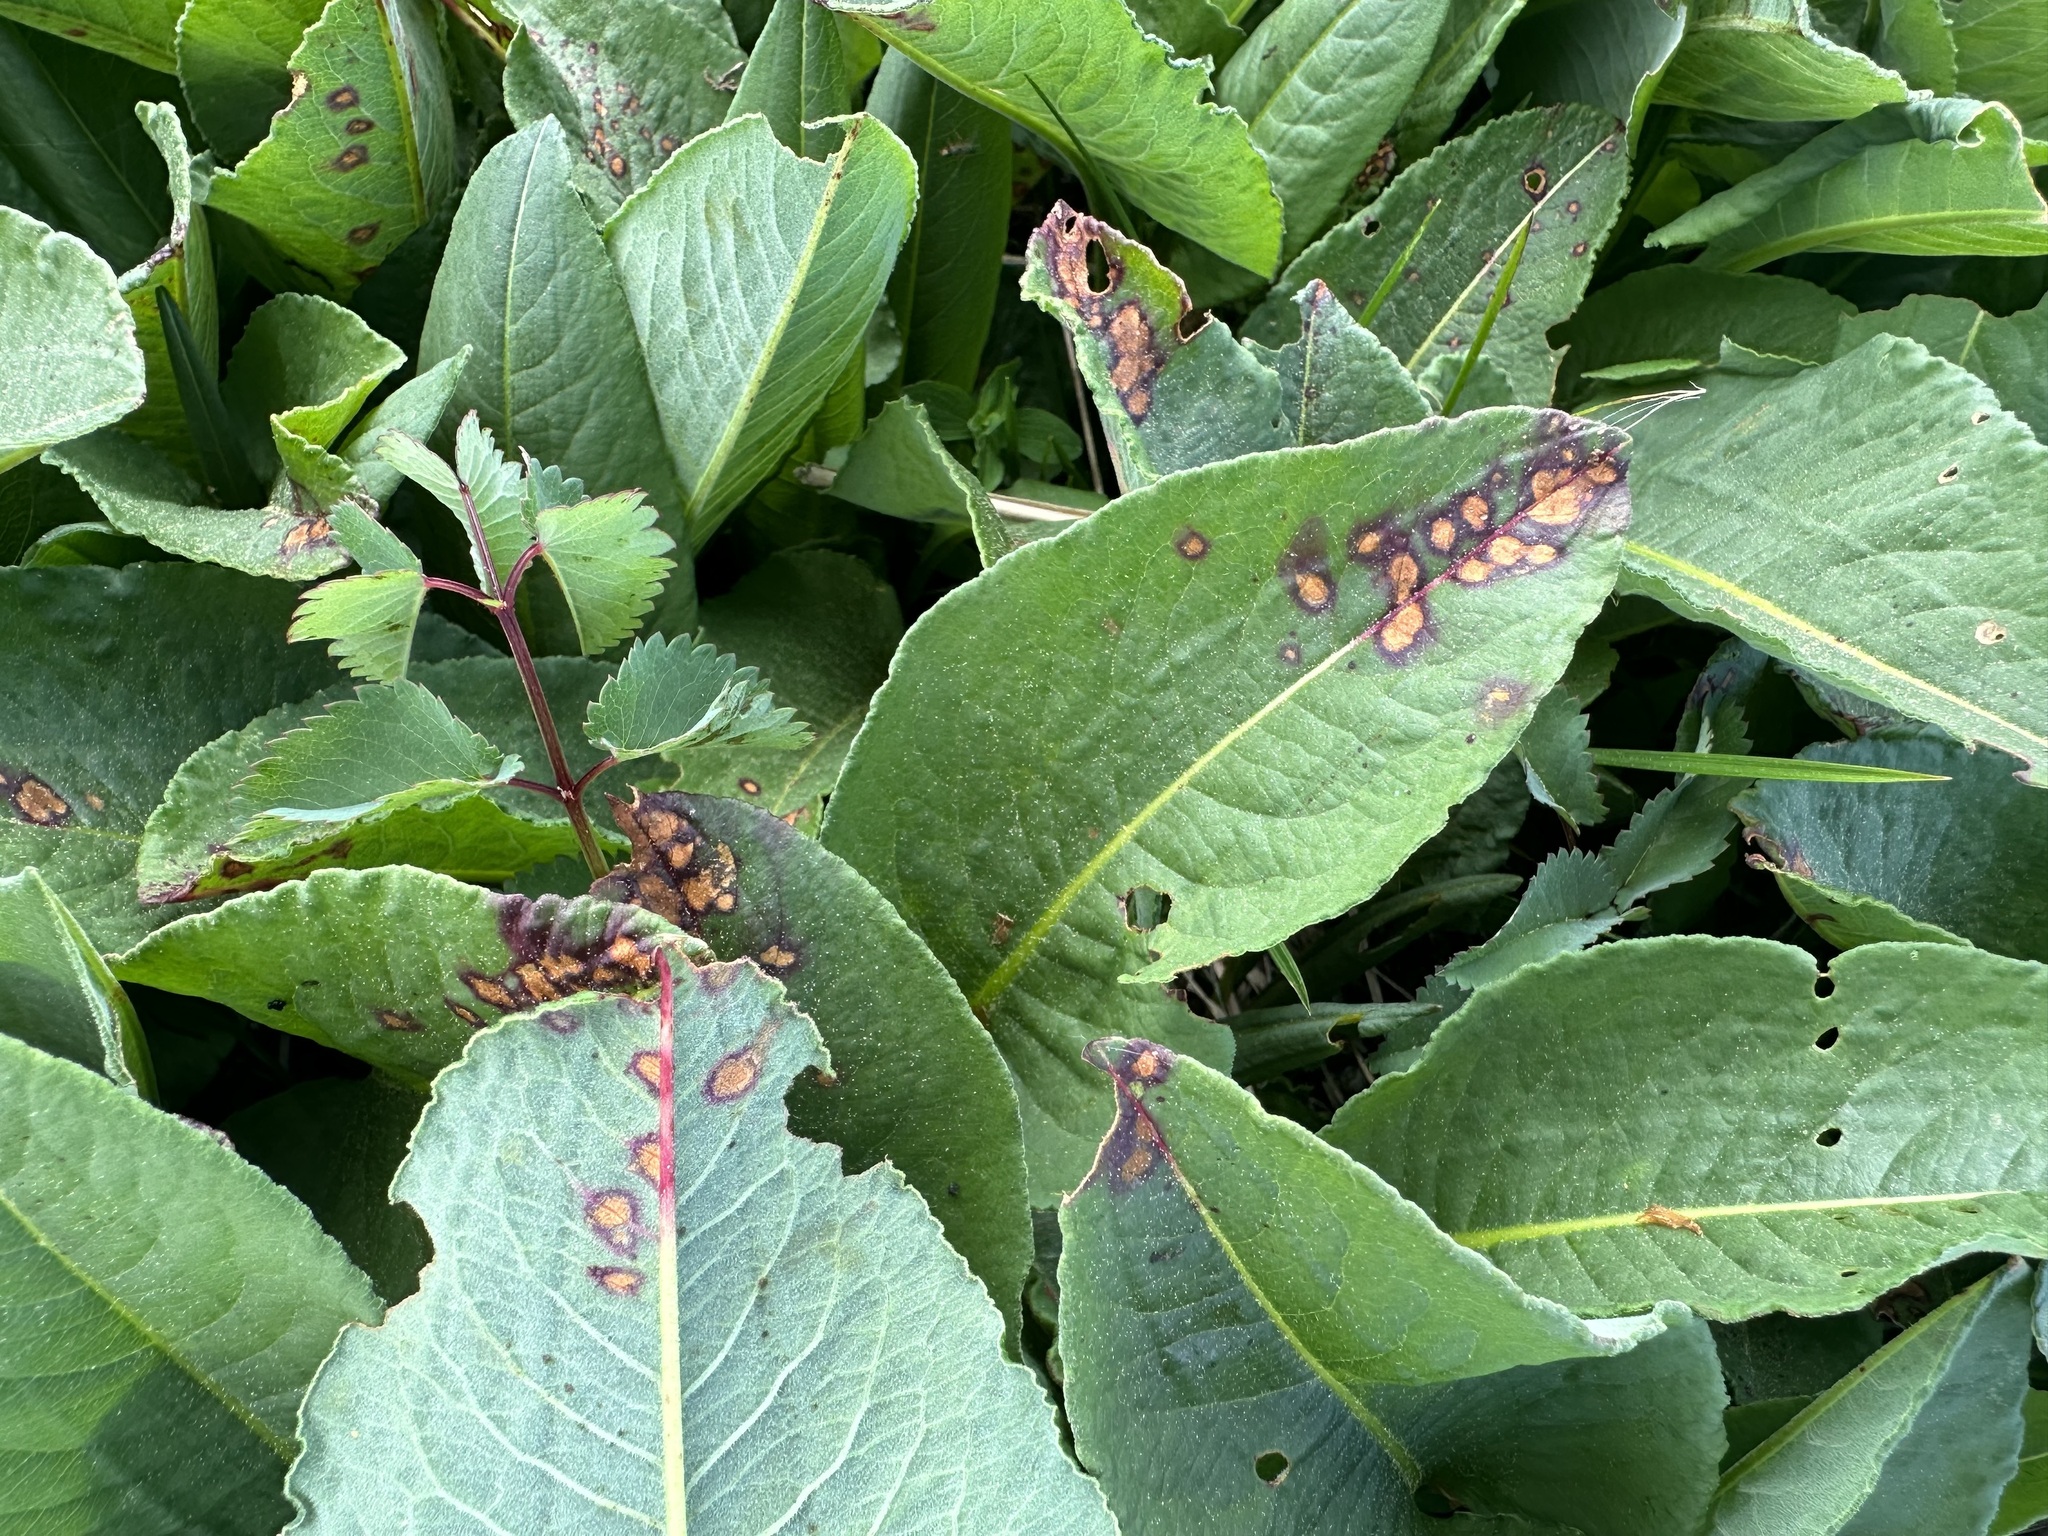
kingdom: Fungi
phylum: Ascomycota
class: Dothideomycetes
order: Mycosphaerellales
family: Mycosphaerellaceae
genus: Ramularia
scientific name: Ramularia bistortae
